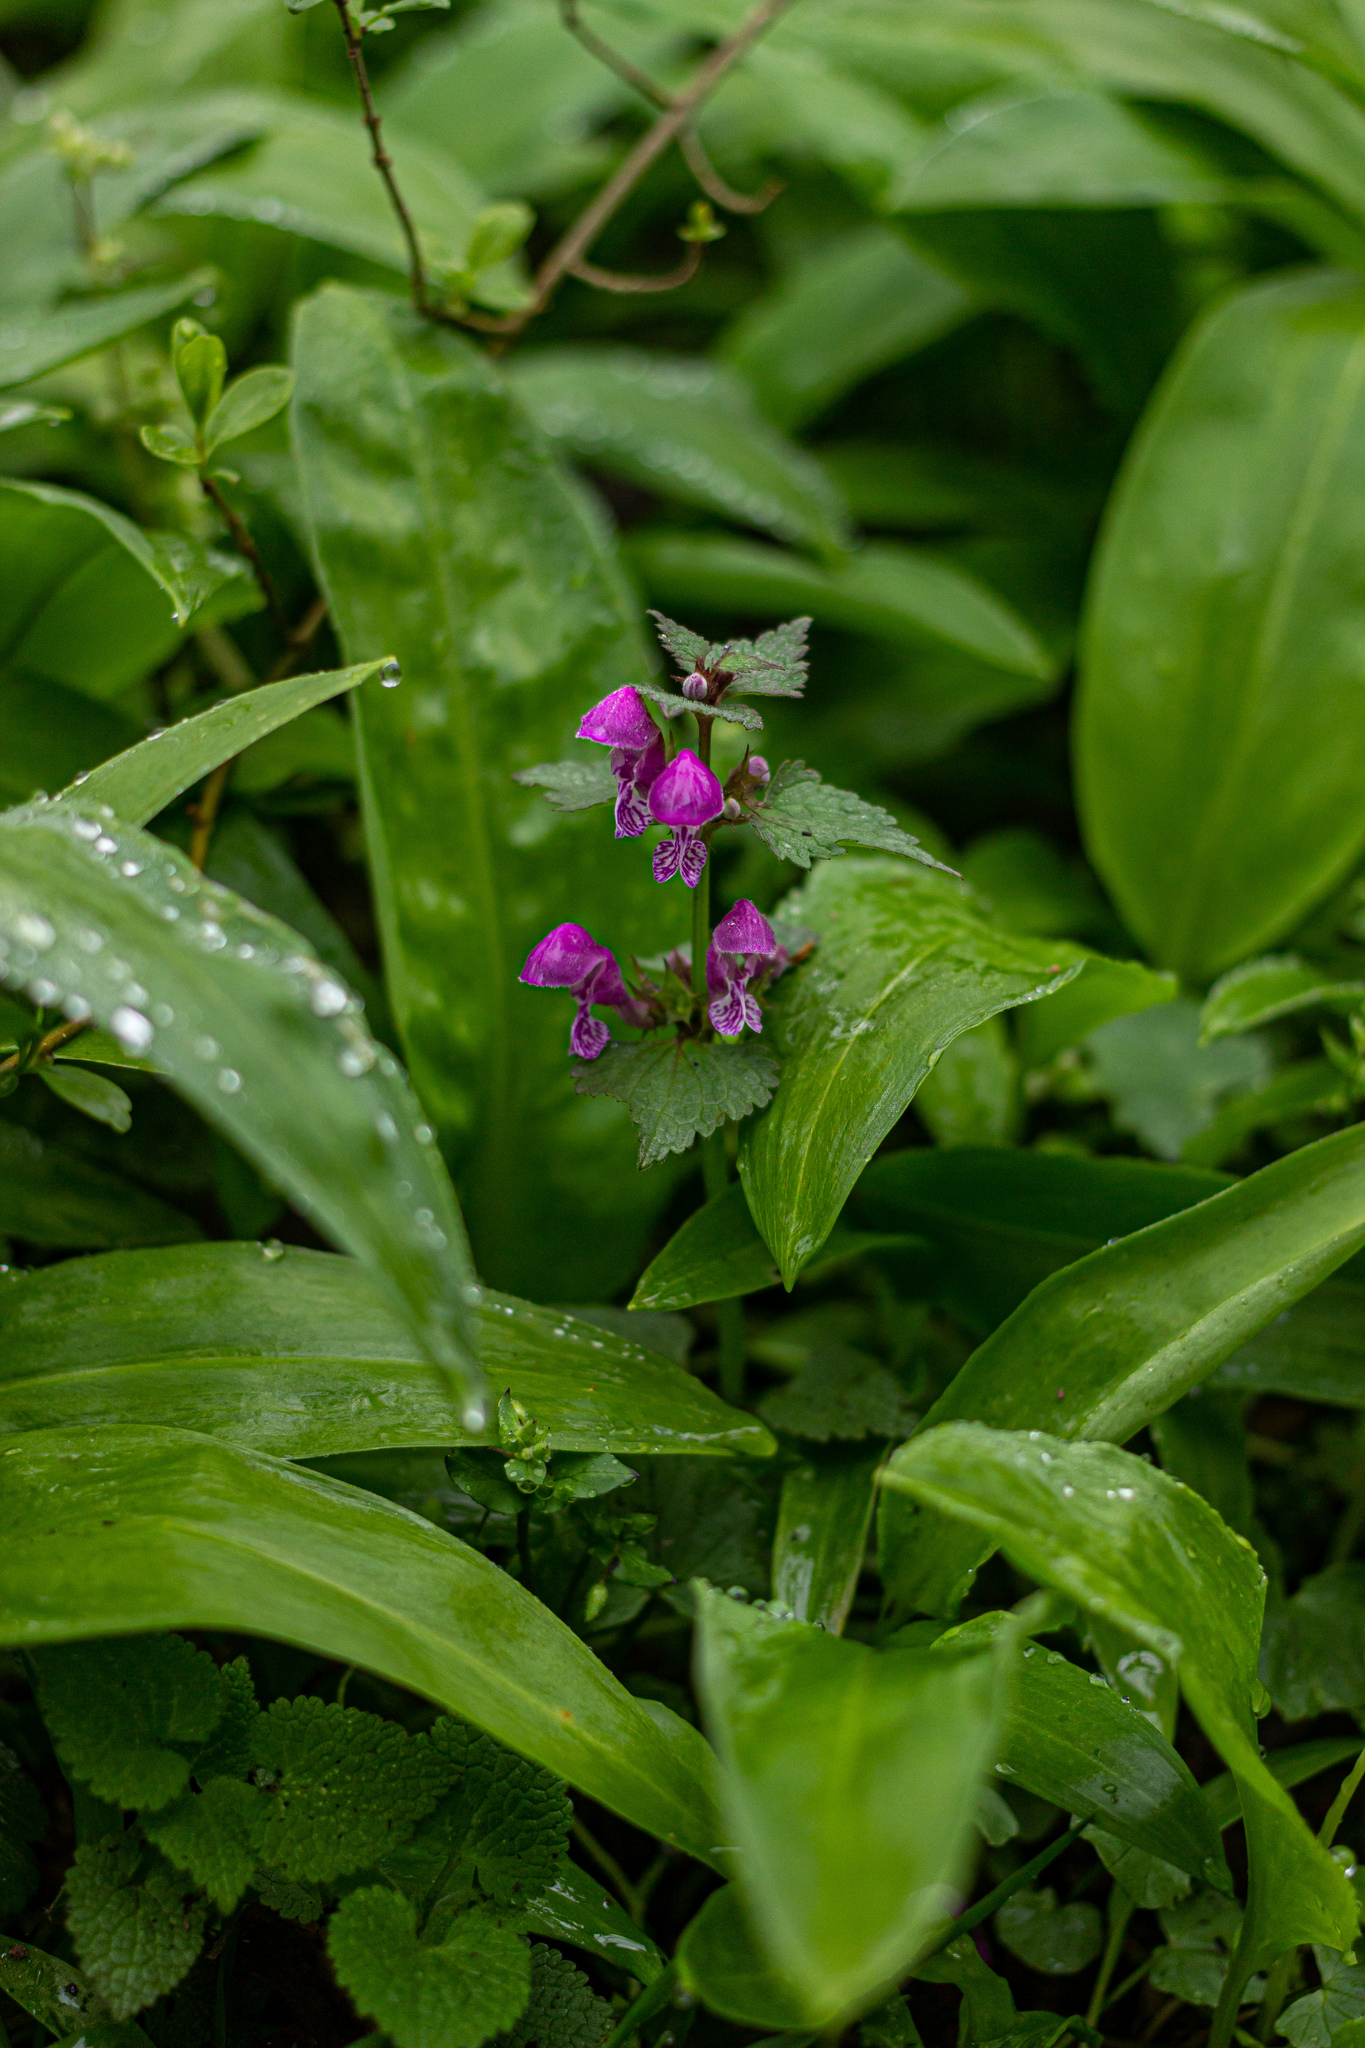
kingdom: Plantae
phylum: Tracheophyta
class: Magnoliopsida
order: Lamiales
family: Lamiaceae
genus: Lamium
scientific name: Lamium maculatum
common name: Spotted dead-nettle
